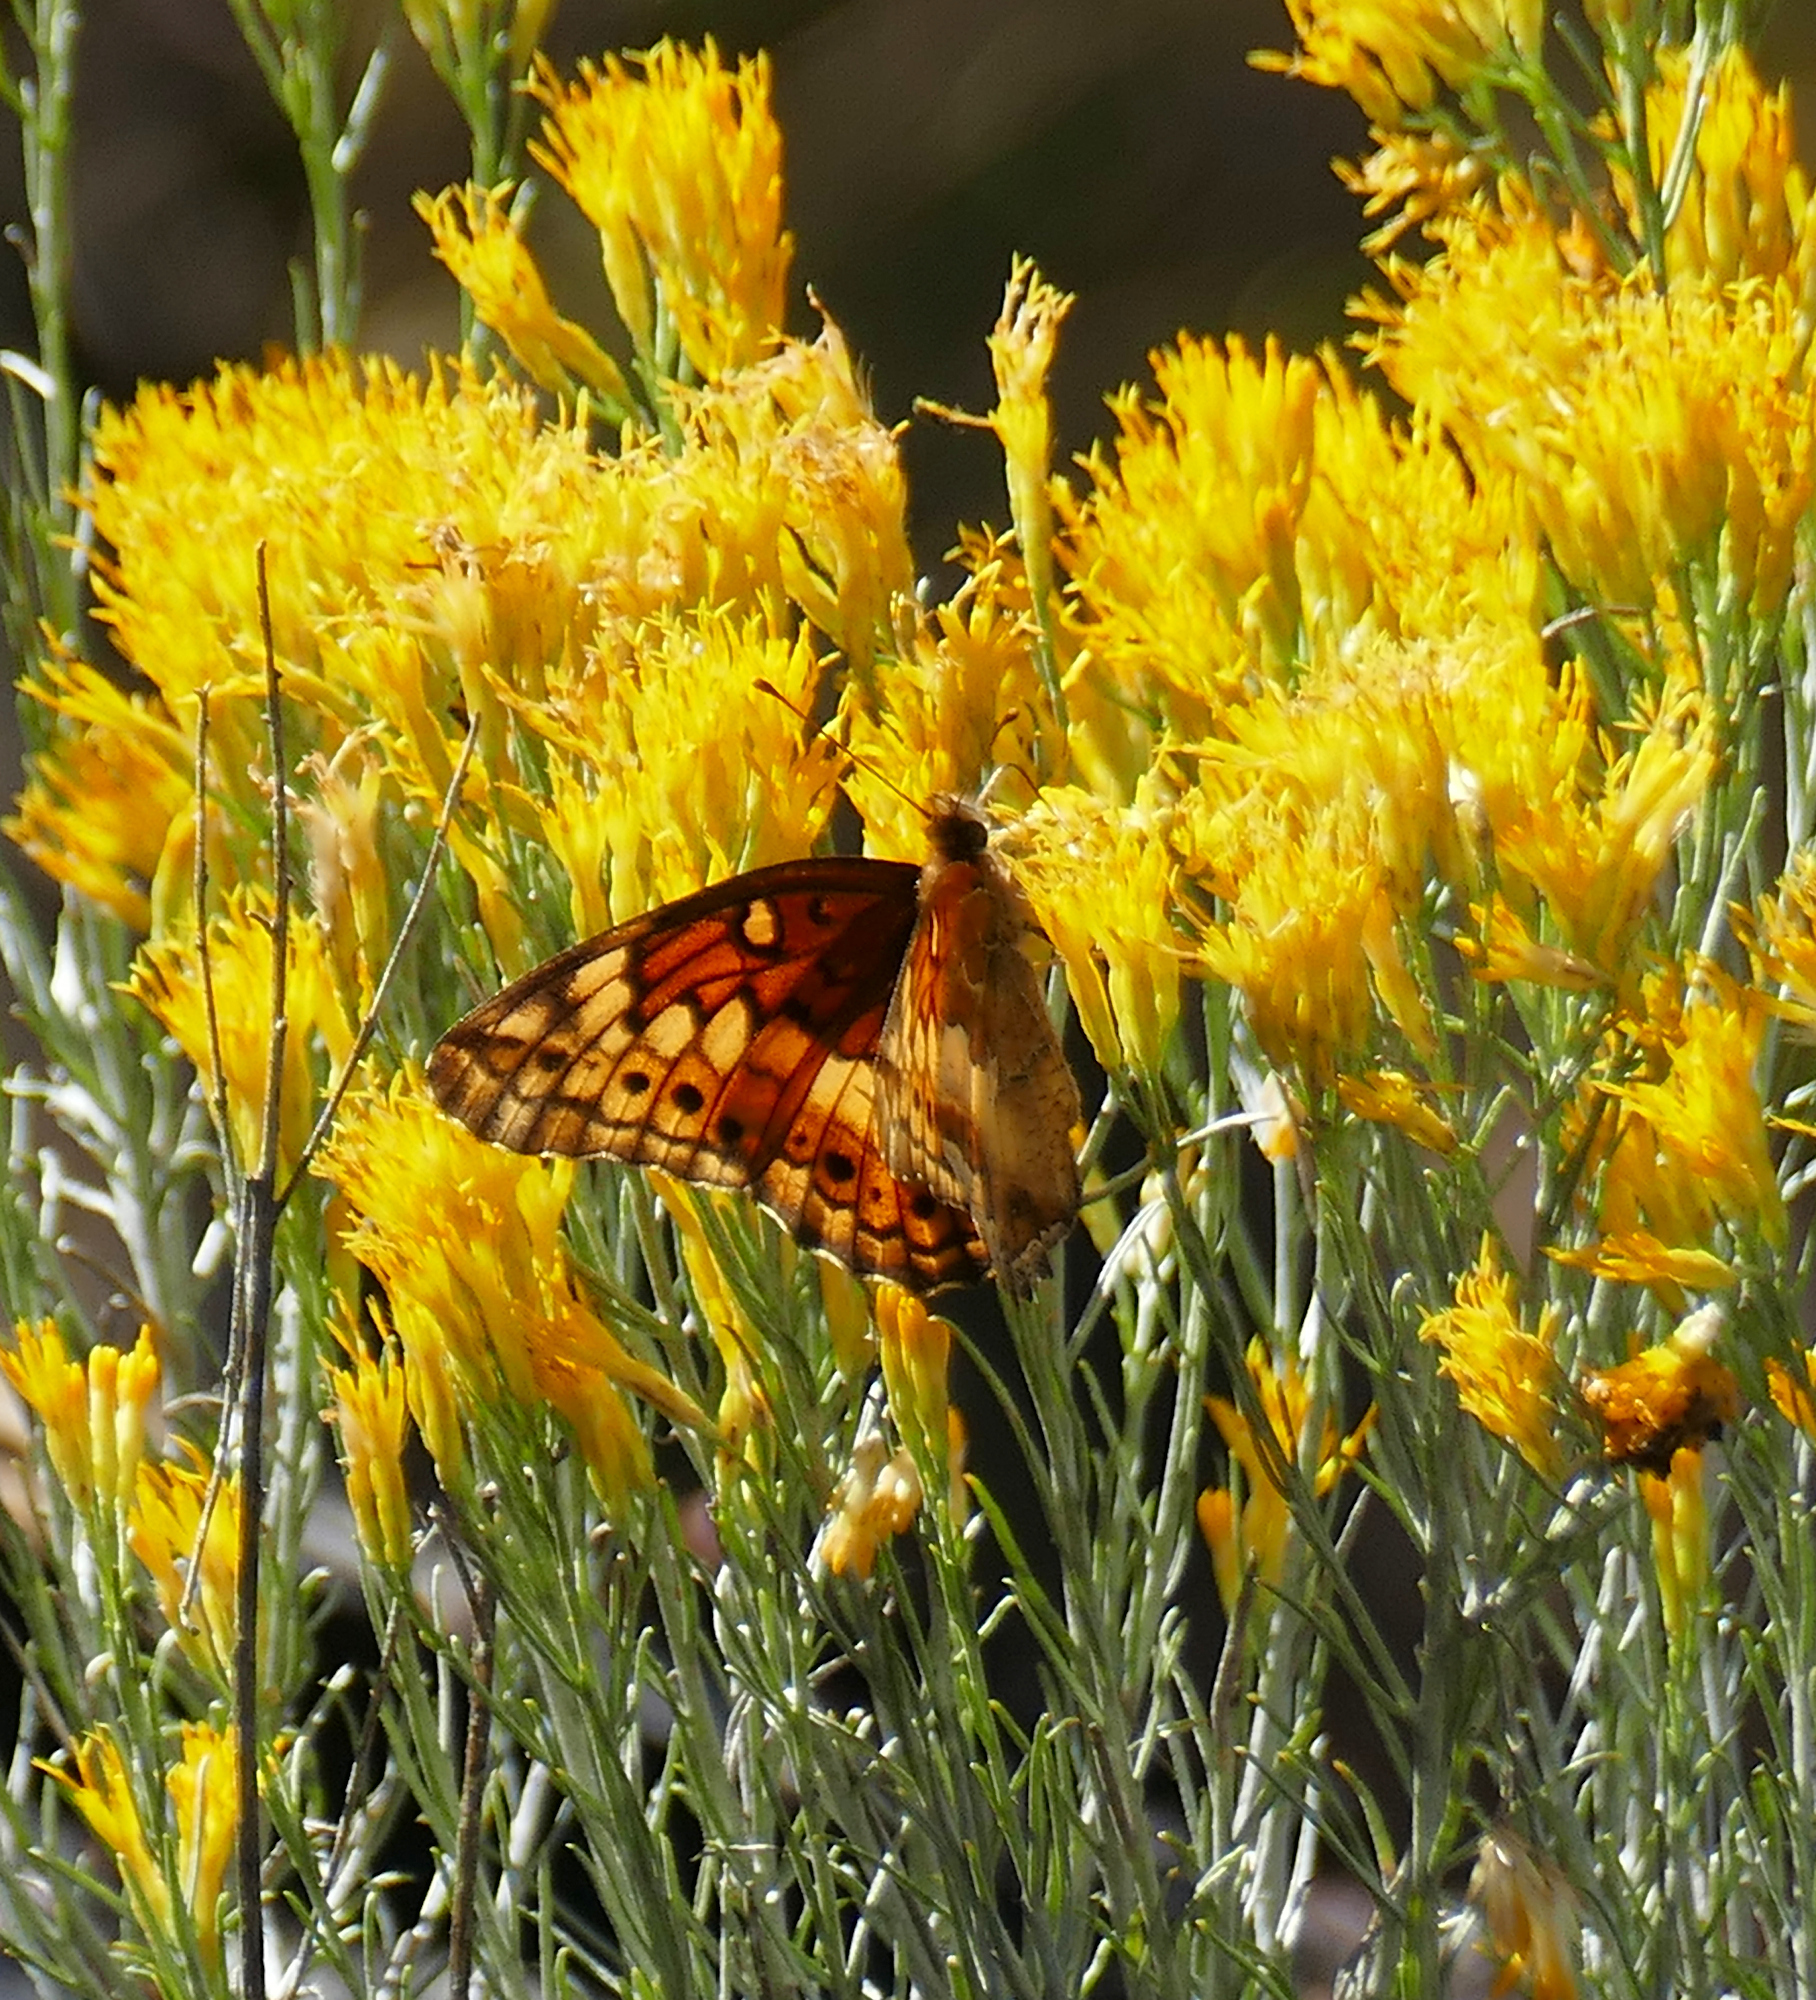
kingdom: Animalia
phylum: Arthropoda
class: Insecta
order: Lepidoptera
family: Nymphalidae
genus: Euptoieta
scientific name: Euptoieta claudia
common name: Variegated fritillary
